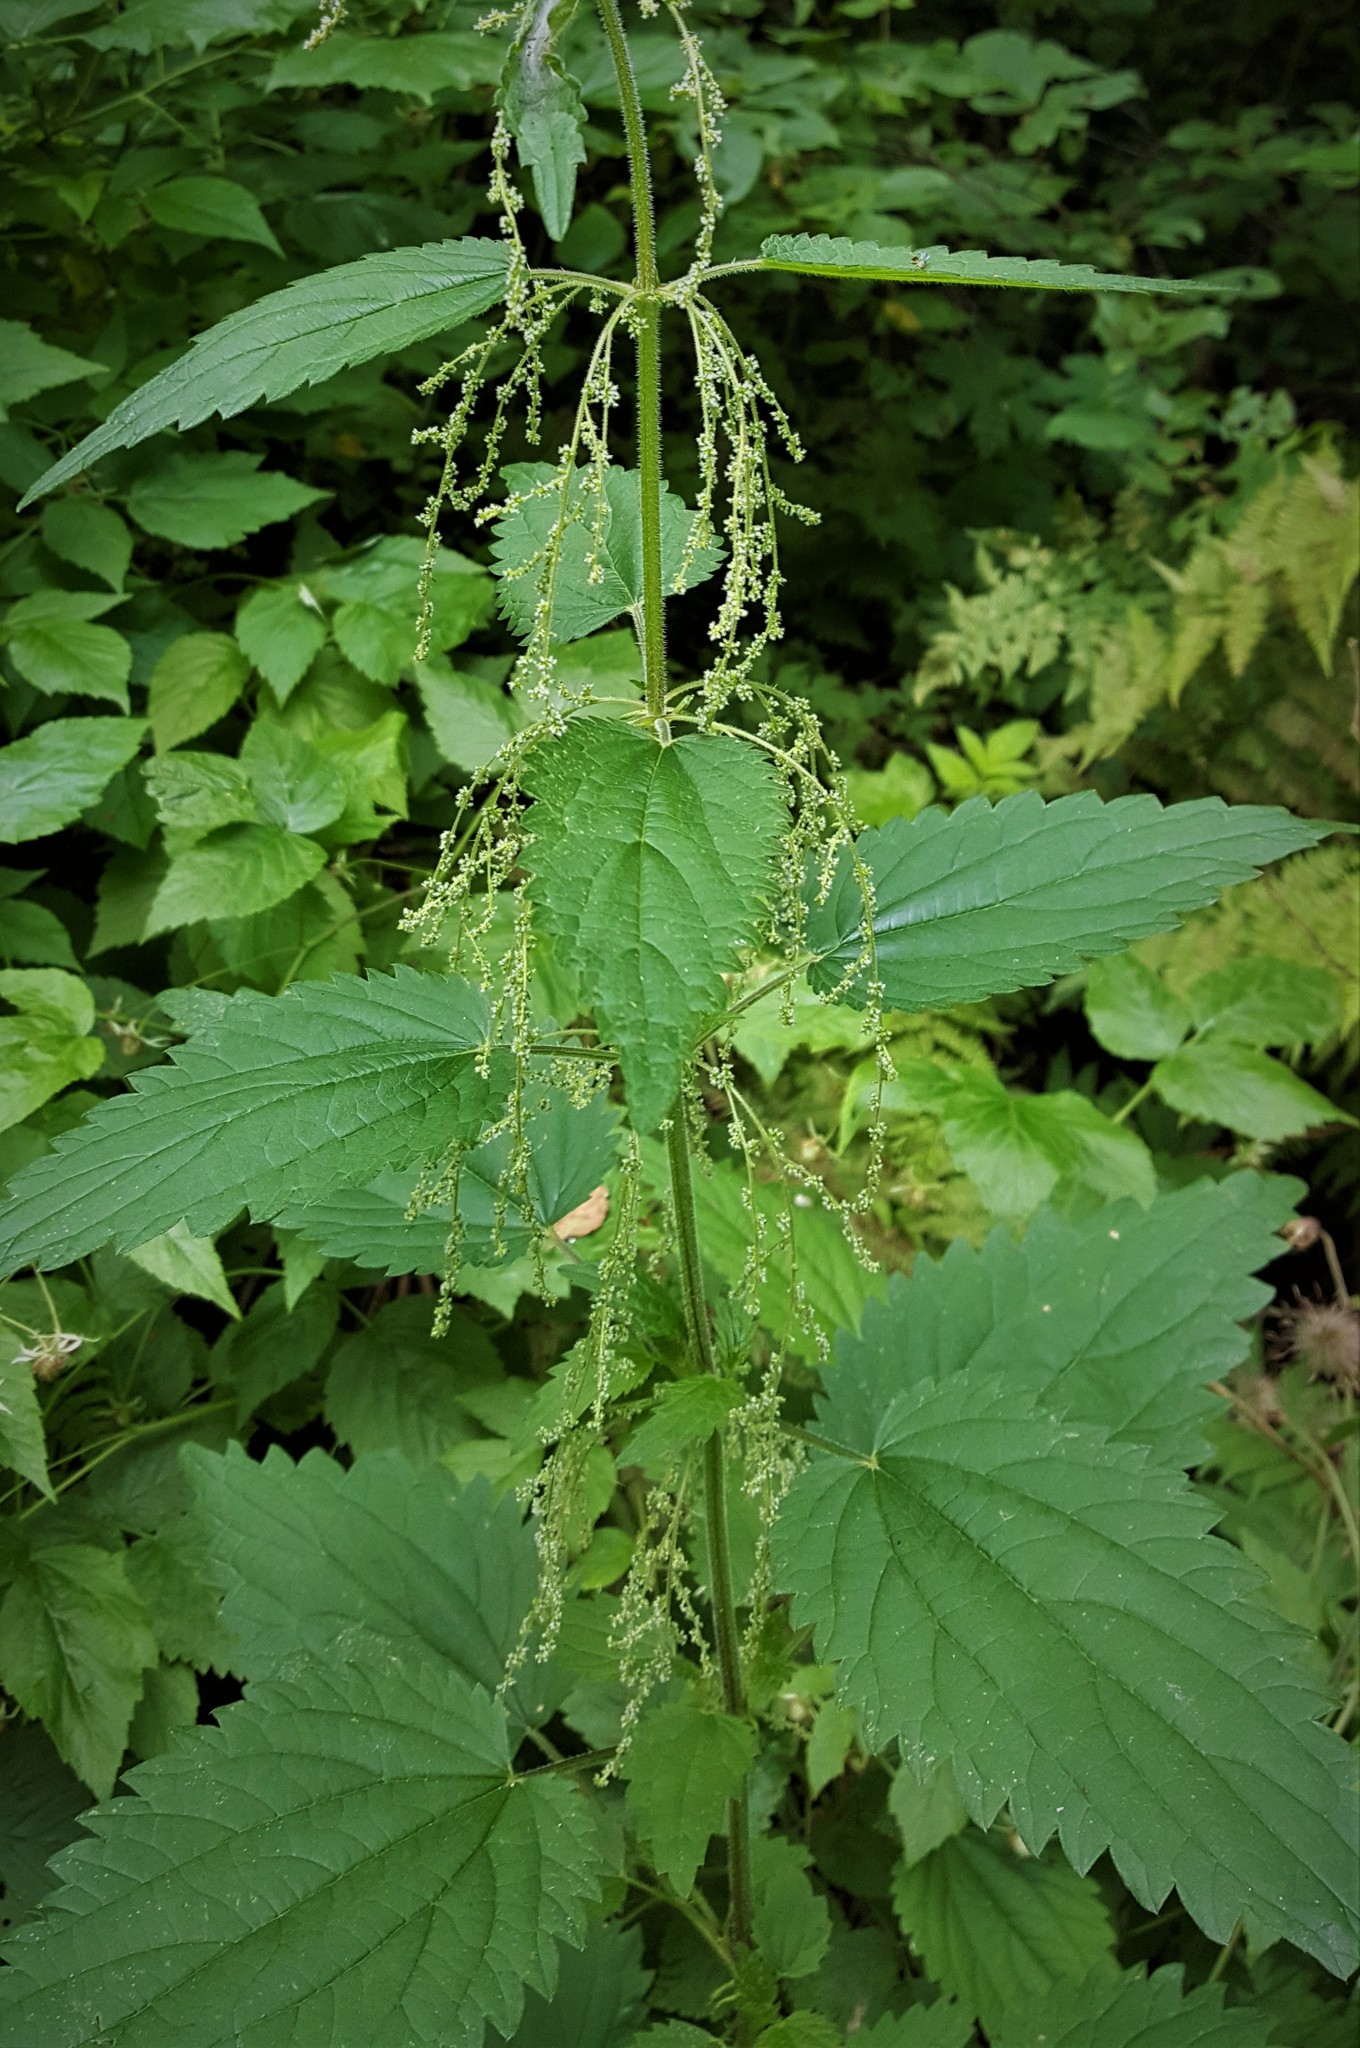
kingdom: Plantae
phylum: Tracheophyta
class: Magnoliopsida
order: Rosales
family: Urticaceae
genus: Urtica
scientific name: Urtica dioica
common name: Common nettle
